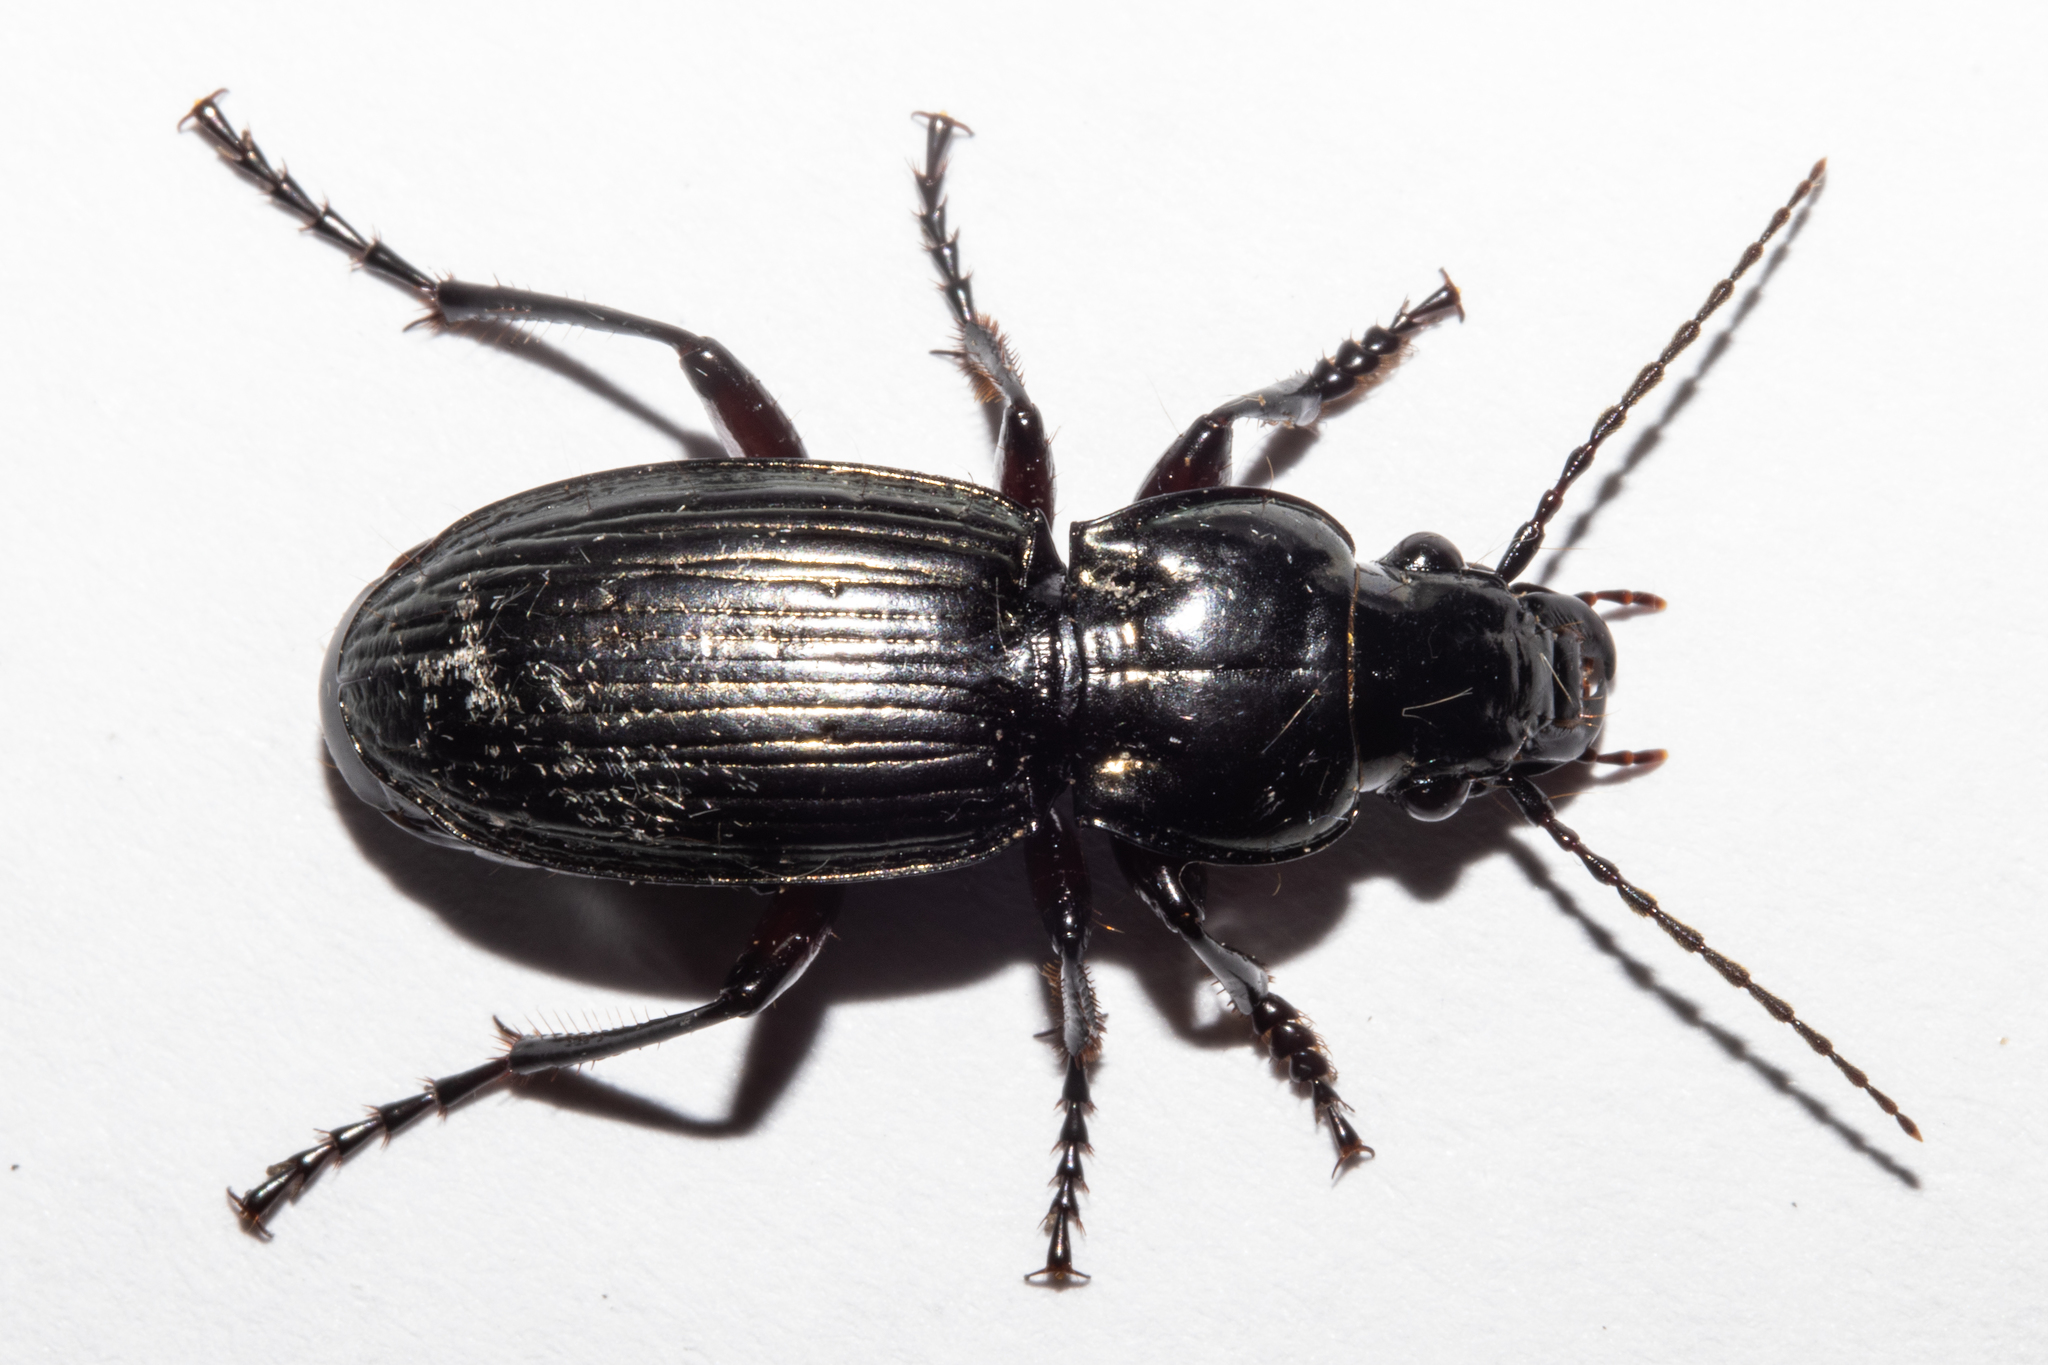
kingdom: Animalia
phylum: Arthropoda
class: Insecta
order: Coleoptera
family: Carabidae
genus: Megadromus
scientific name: Megadromus curtulus
